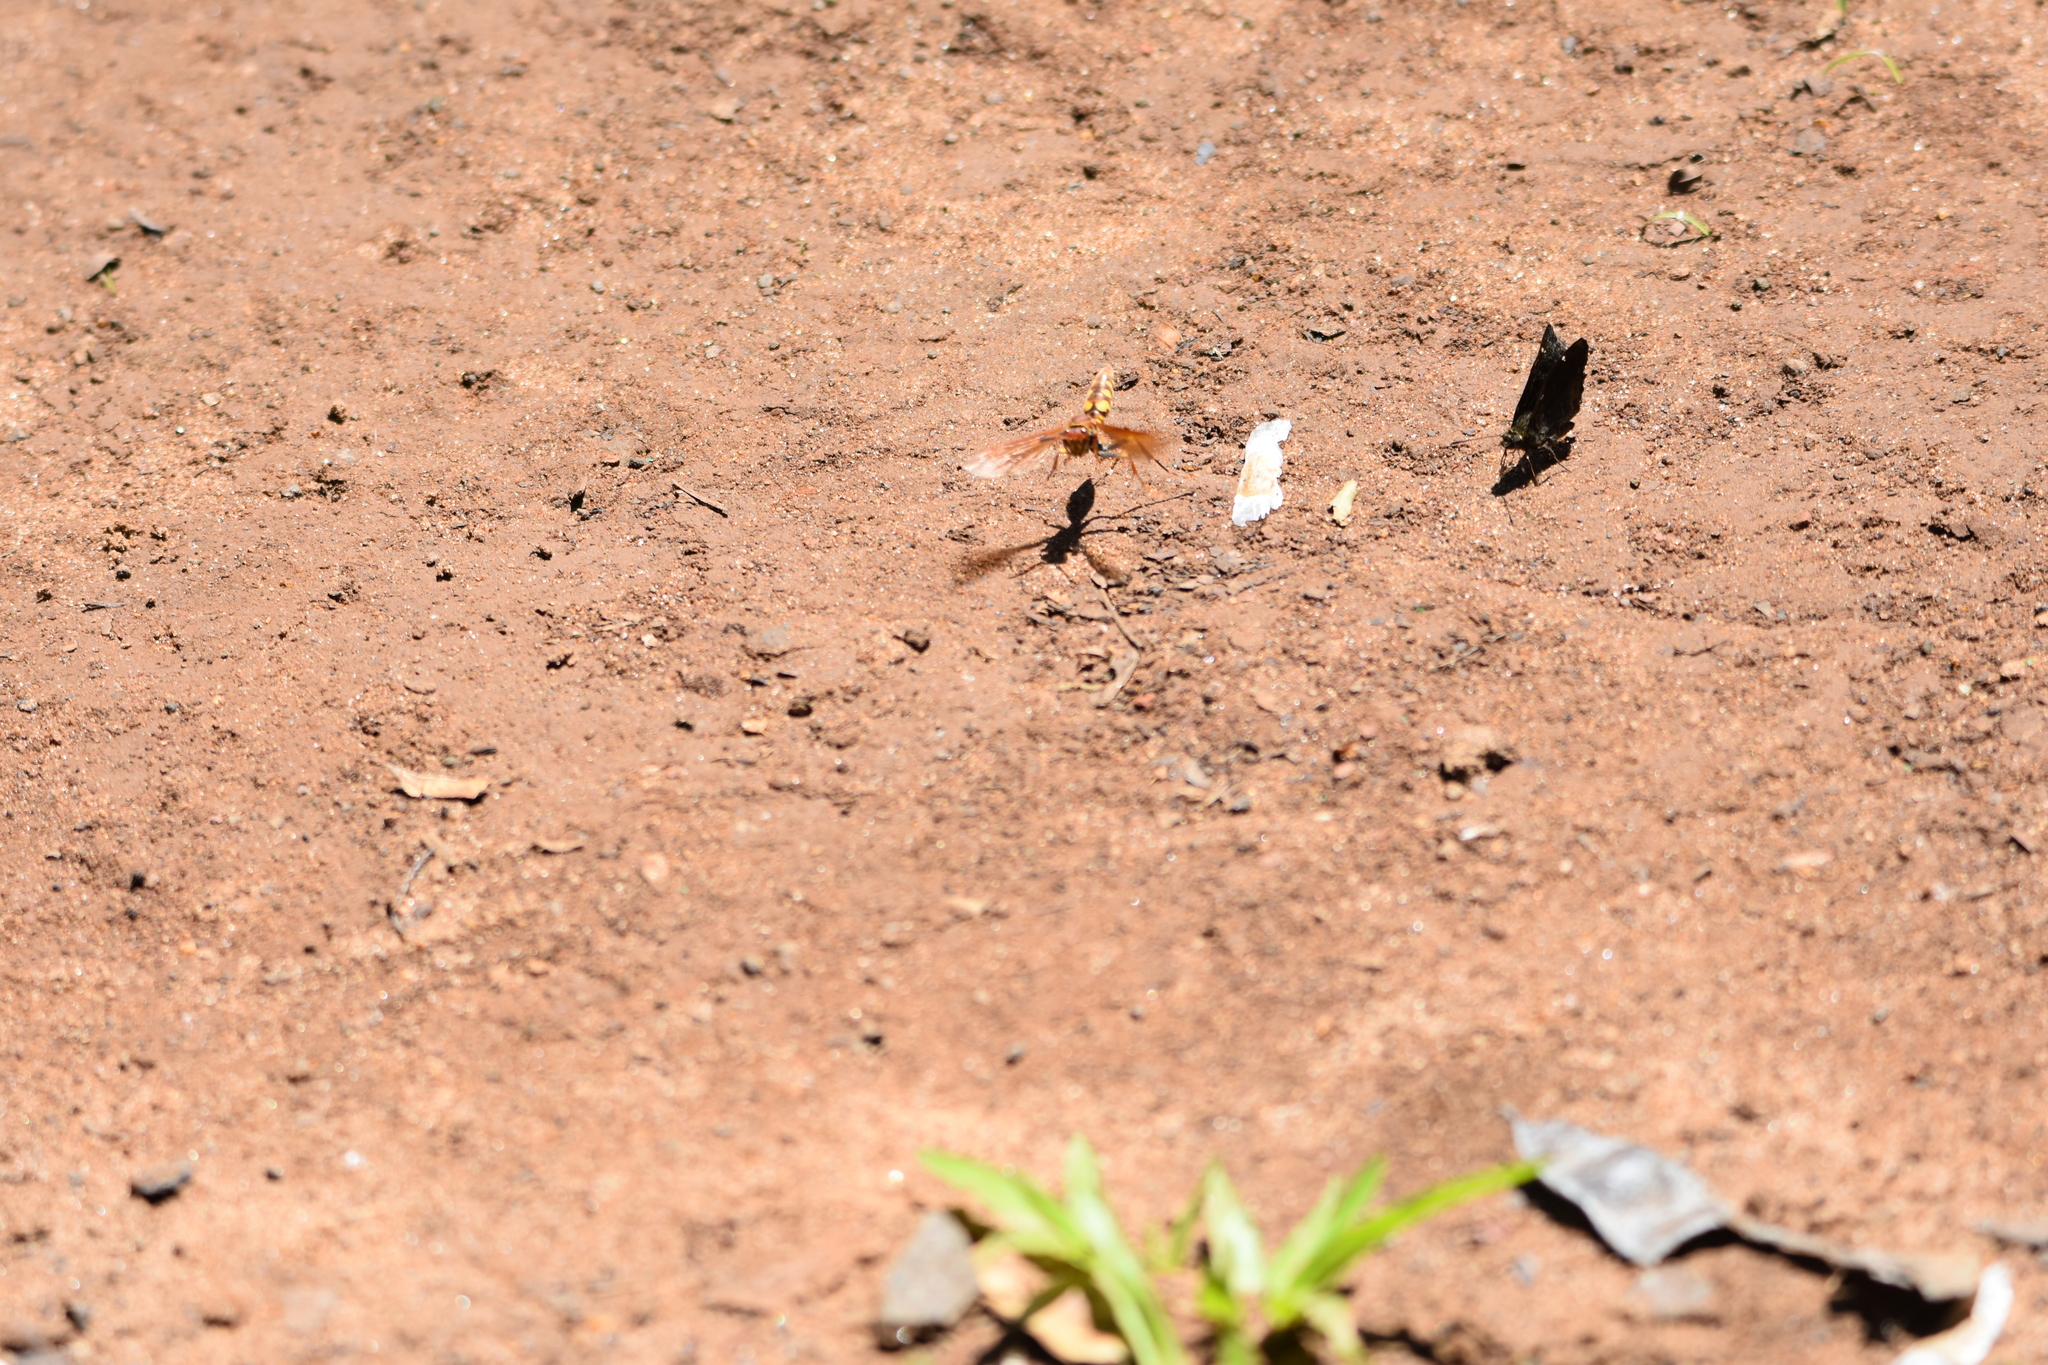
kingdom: Animalia
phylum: Arthropoda
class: Insecta
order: Hymenoptera
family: Eumenidae
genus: Polistes
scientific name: Polistes versicolor
